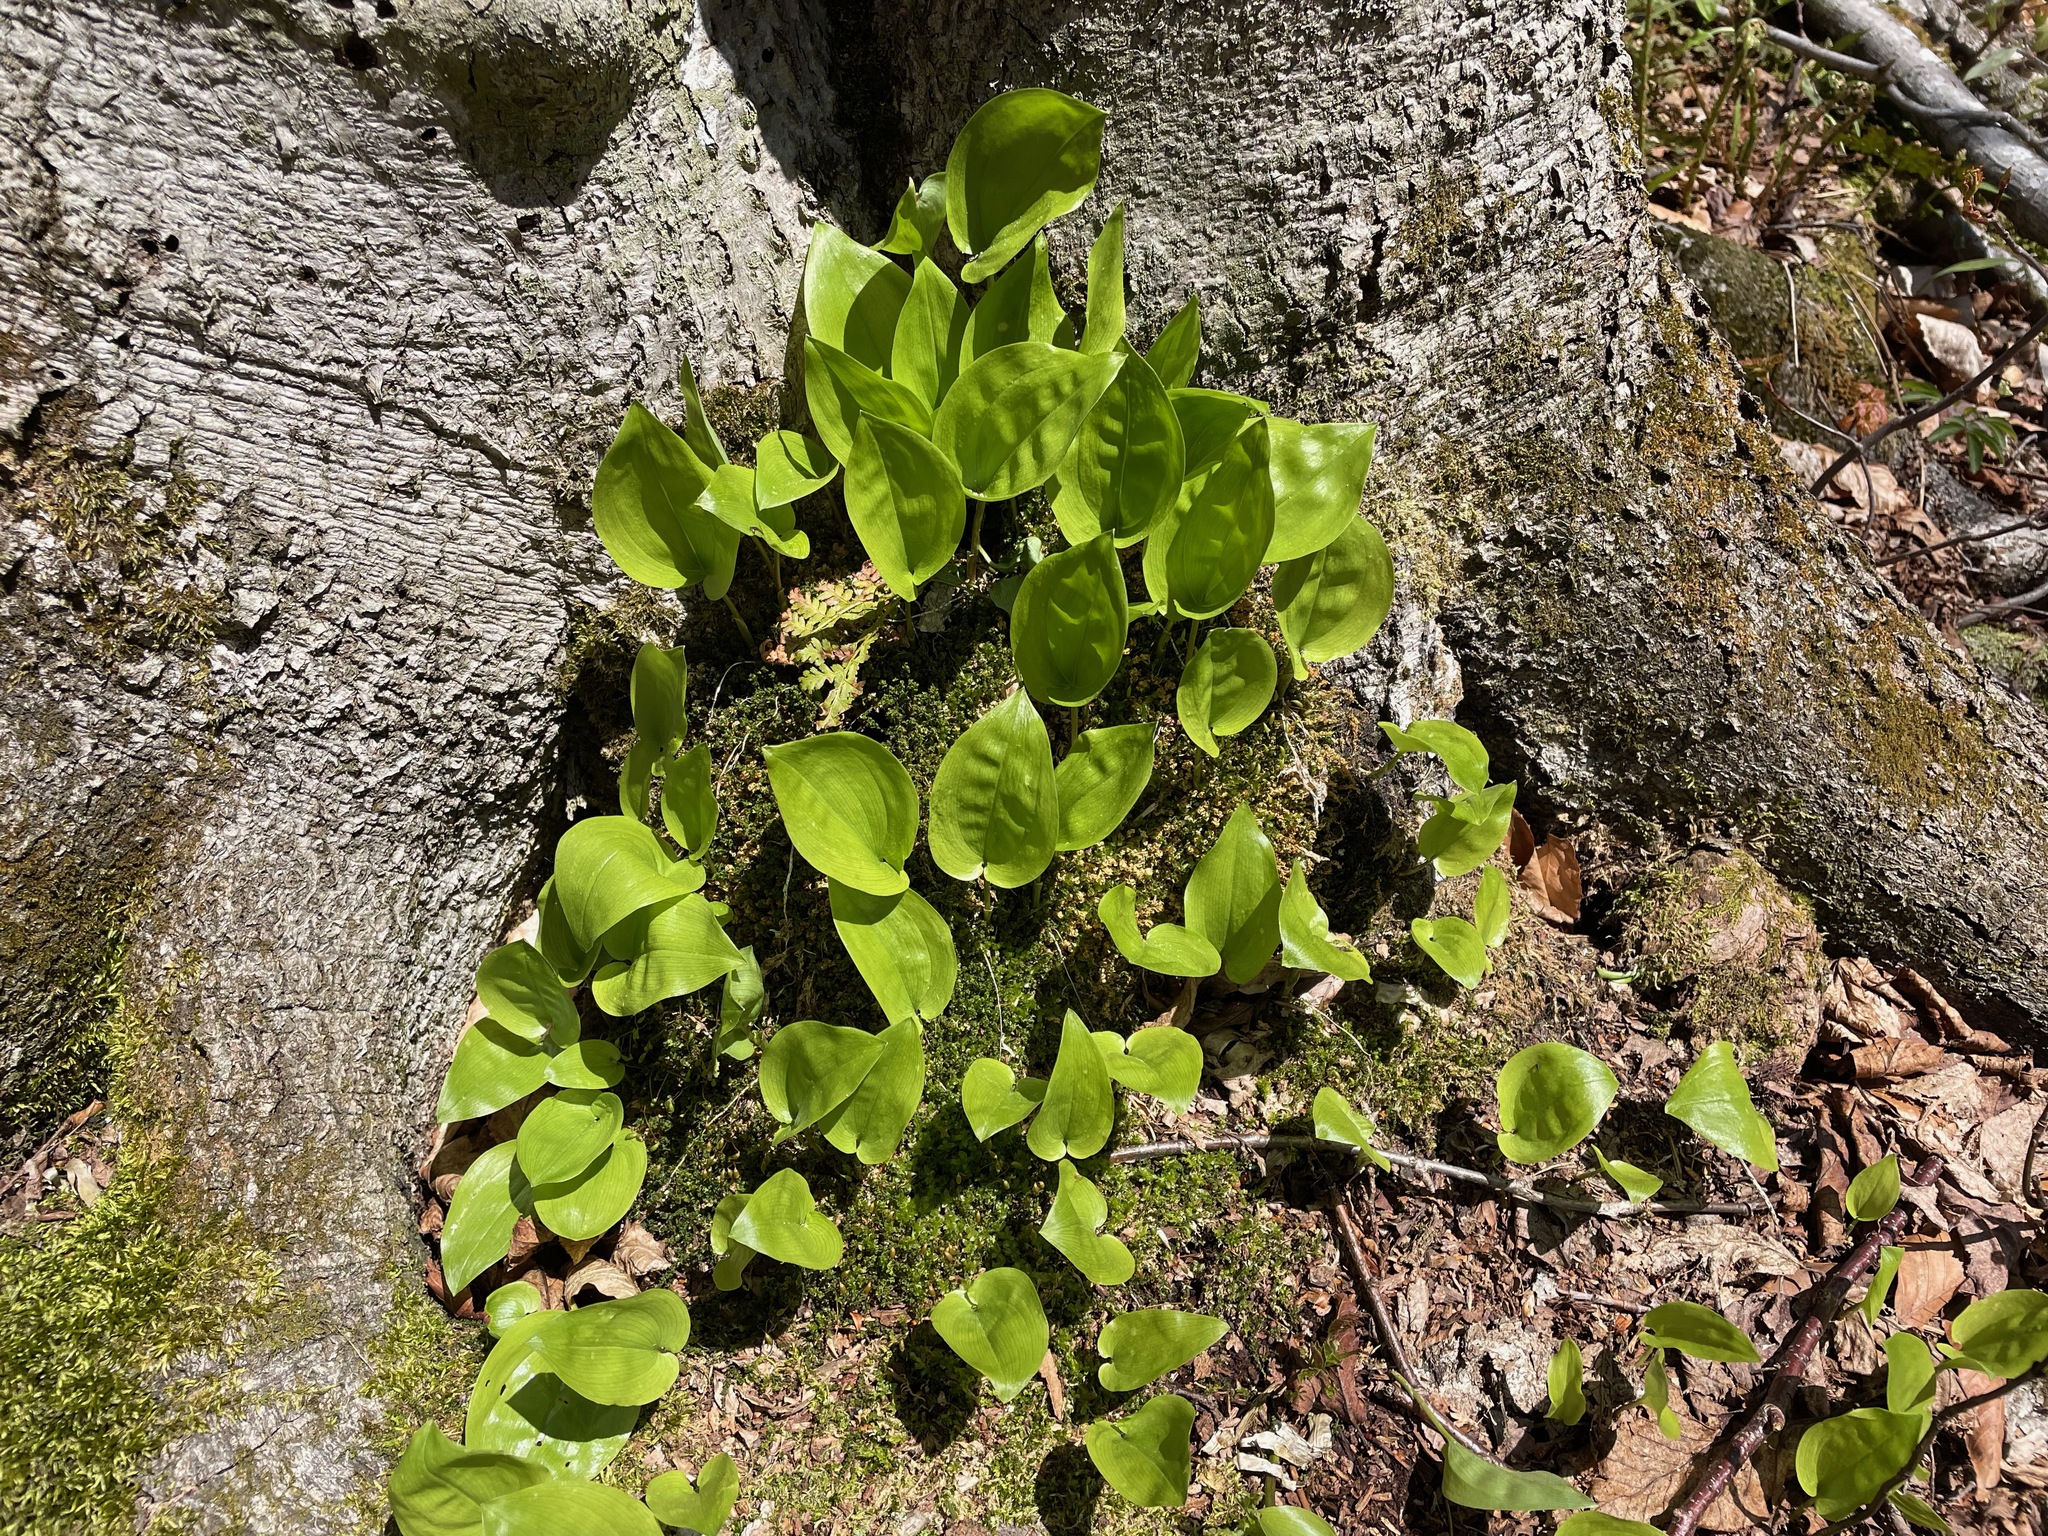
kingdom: Plantae
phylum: Tracheophyta
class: Liliopsida
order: Asparagales
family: Asparagaceae
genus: Maianthemum
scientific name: Maianthemum canadense
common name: False lily-of-the-valley
